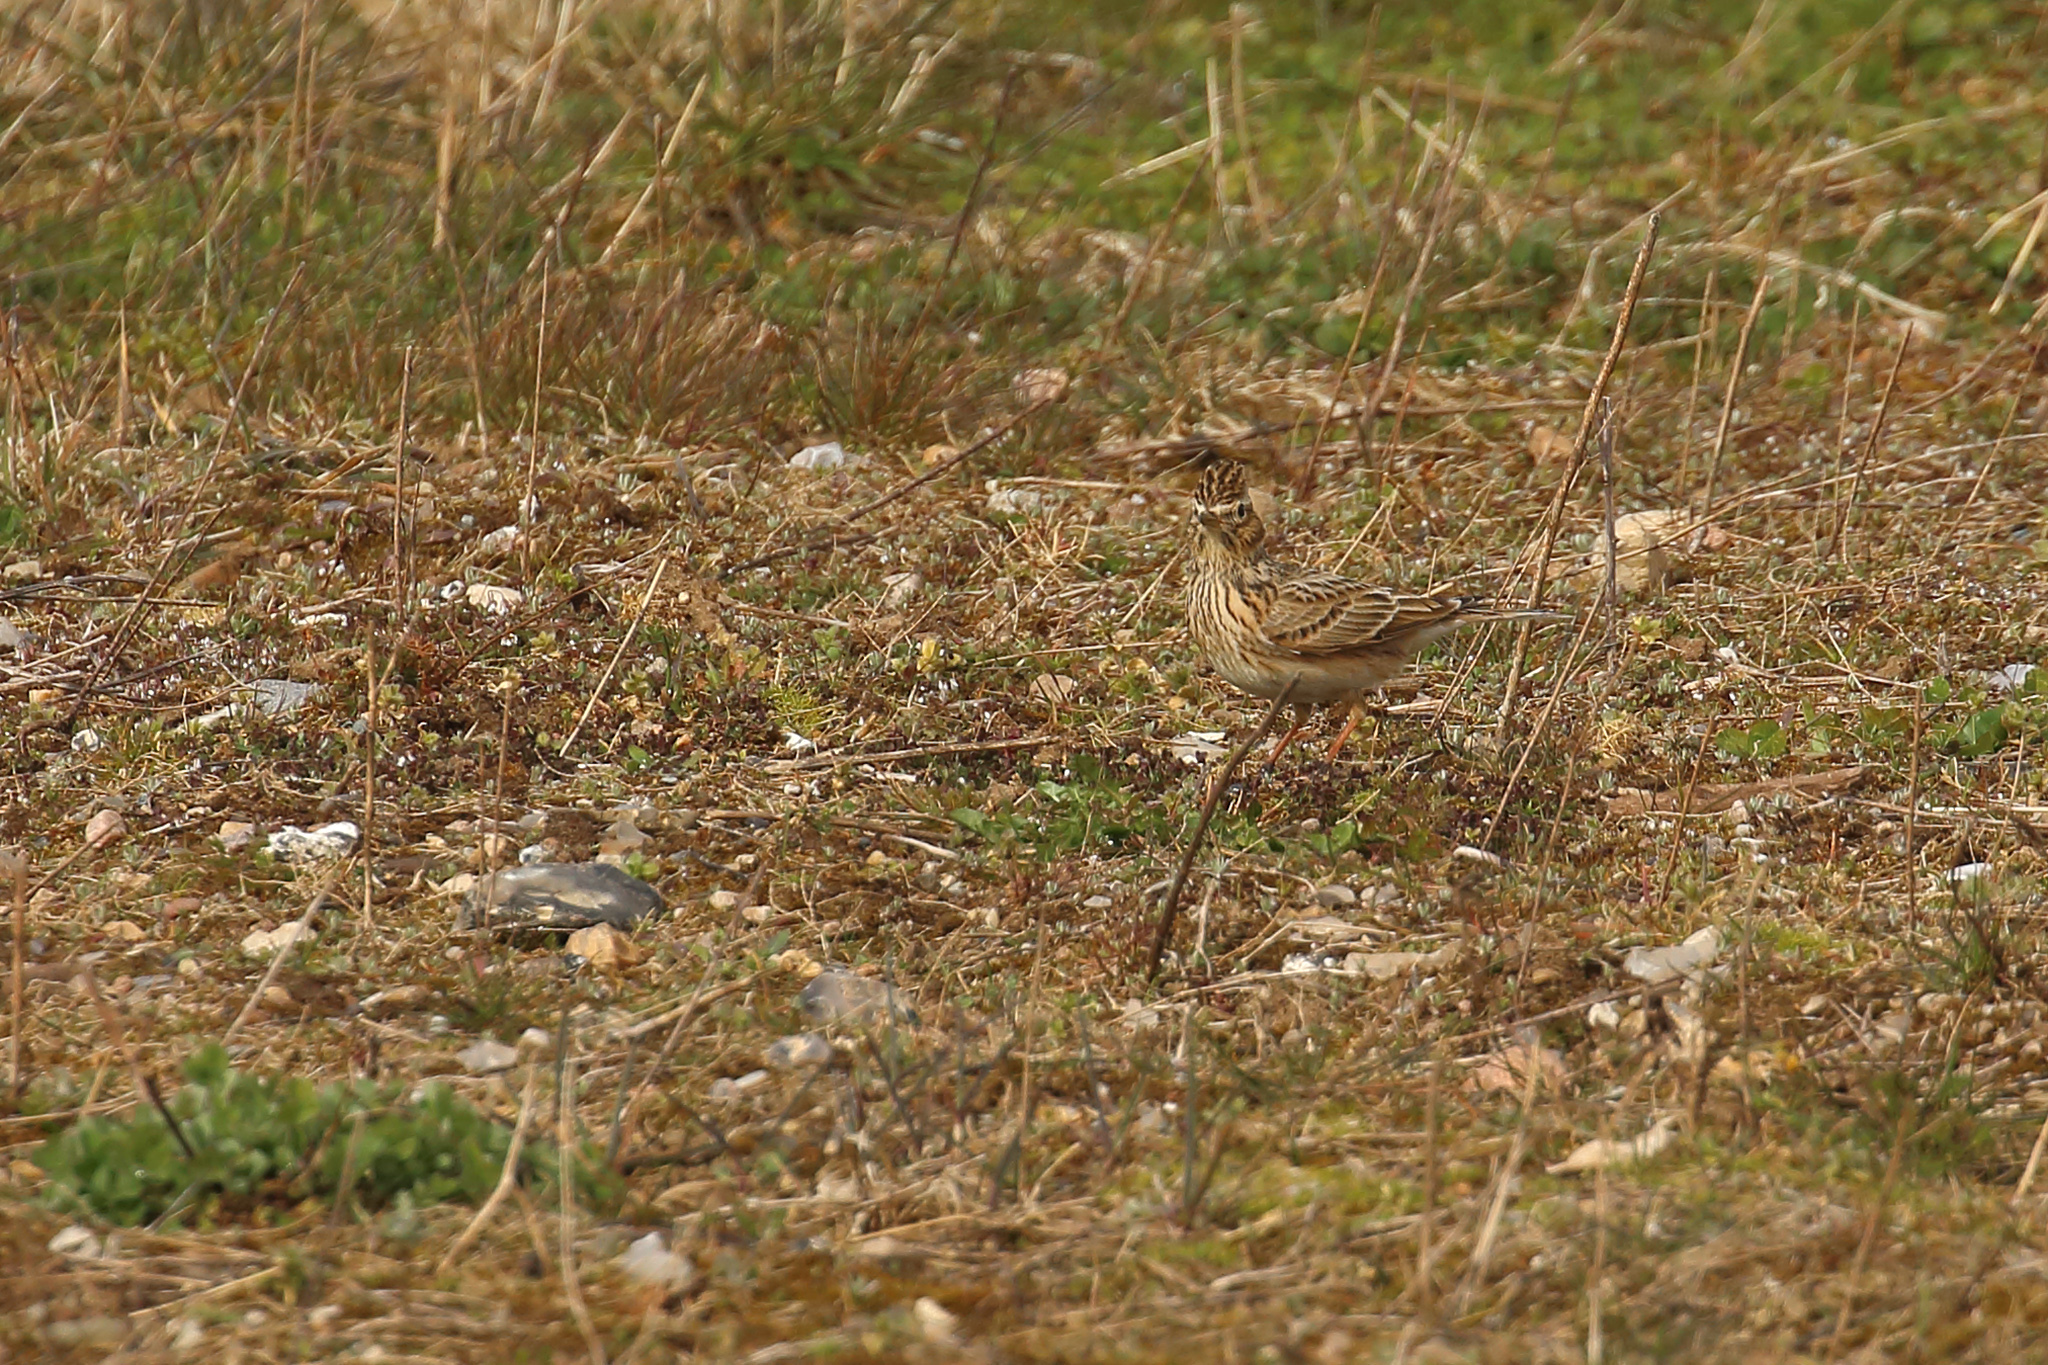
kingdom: Animalia
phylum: Chordata
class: Aves
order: Passeriformes
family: Alaudidae
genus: Alauda
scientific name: Alauda arvensis
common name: Eurasian skylark
